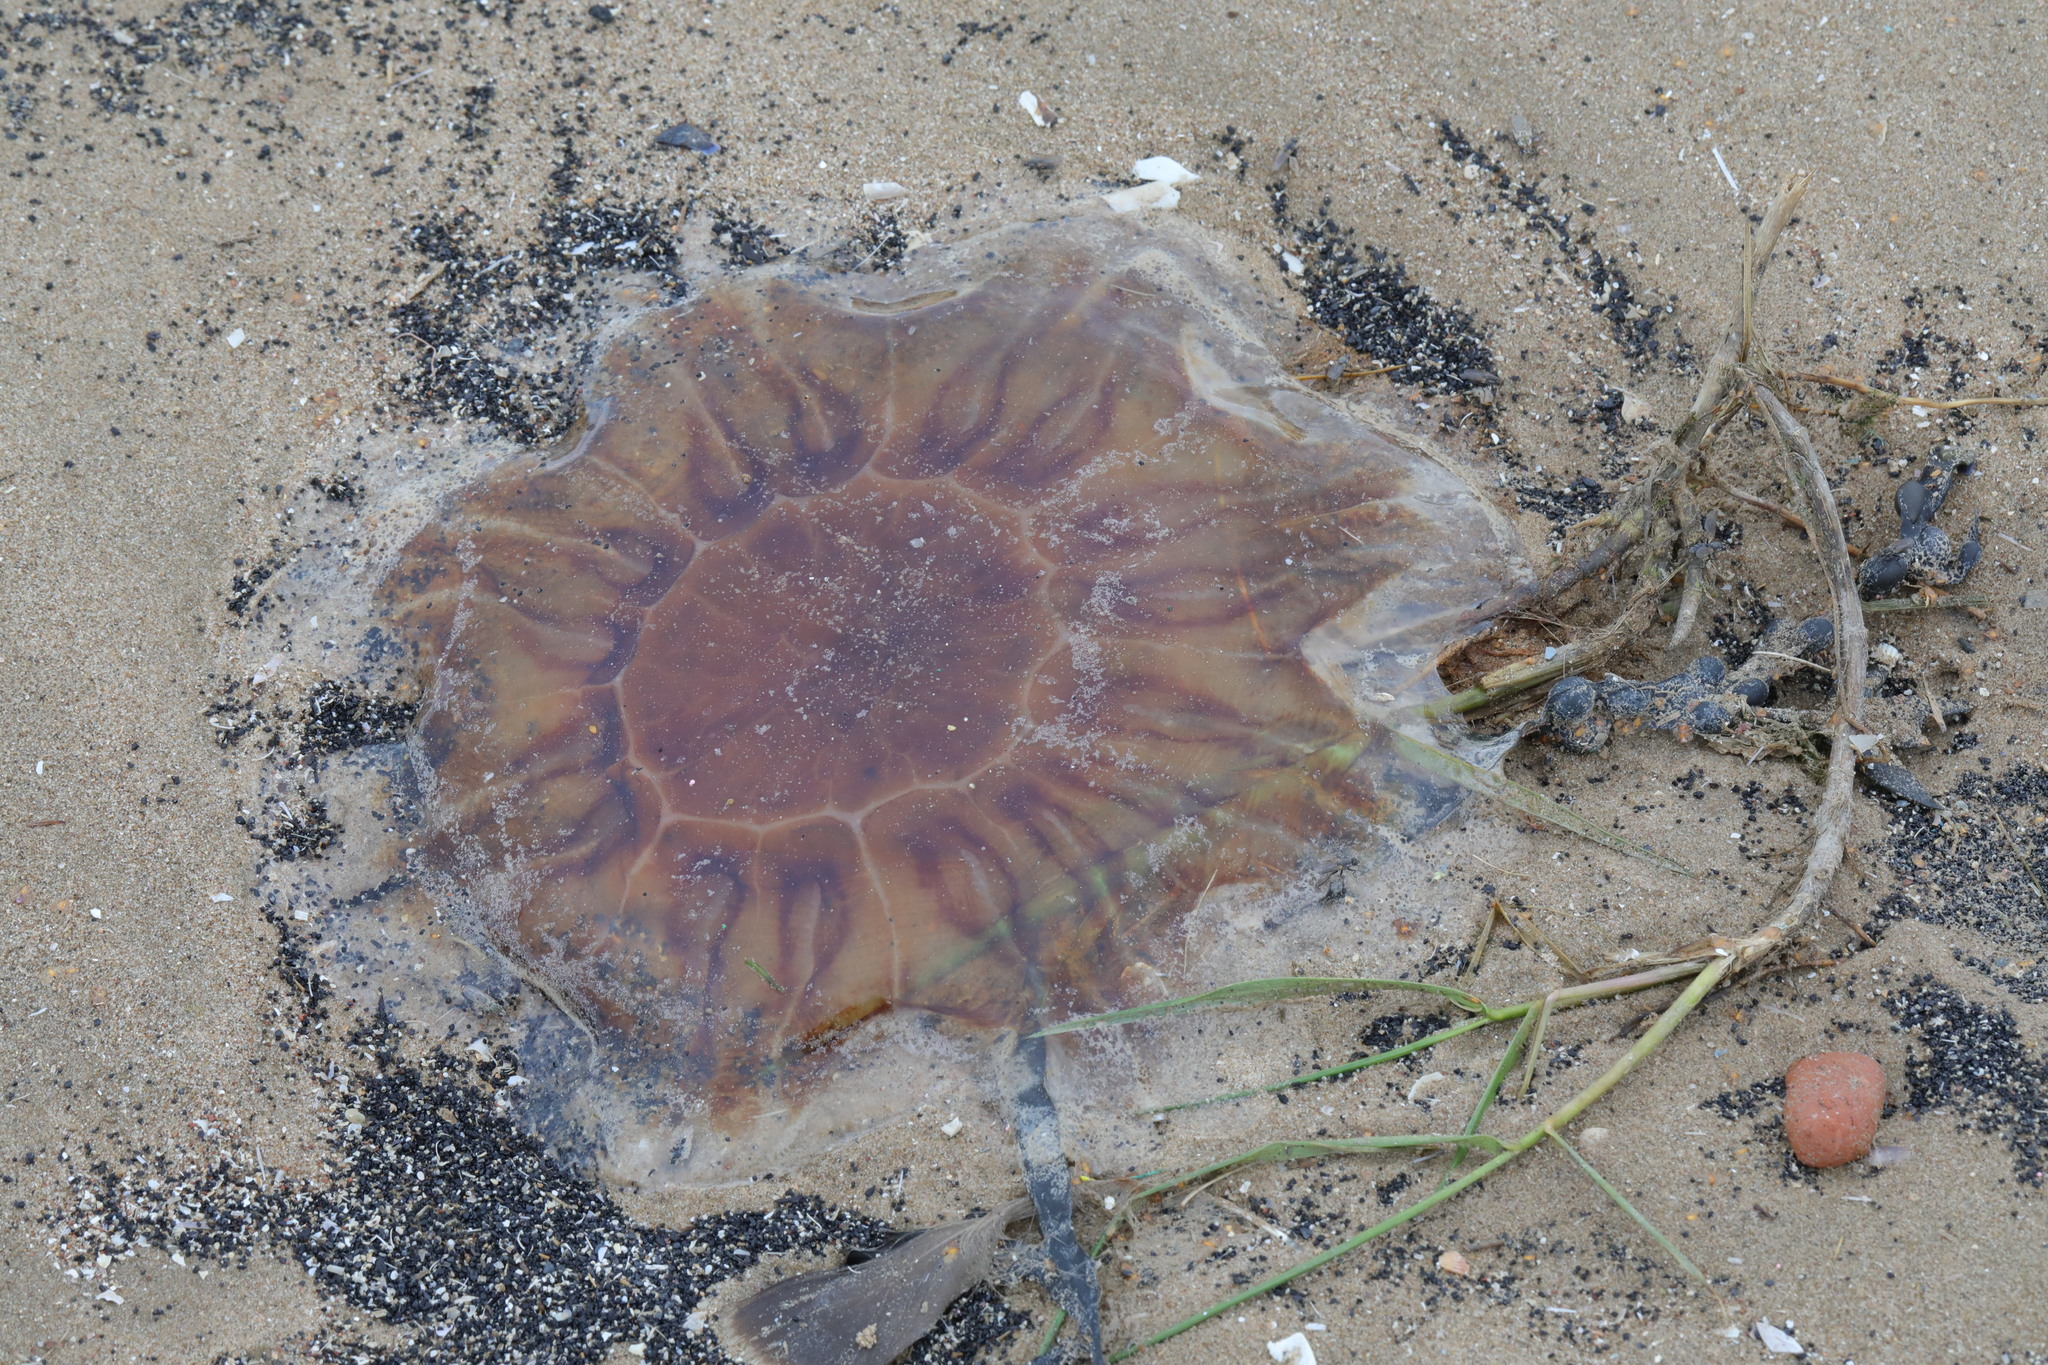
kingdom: Animalia
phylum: Cnidaria
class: Scyphozoa
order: Semaeostomeae
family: Cyaneidae
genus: Cyanea
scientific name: Cyanea capillata
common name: Lion's mane jellyfish
